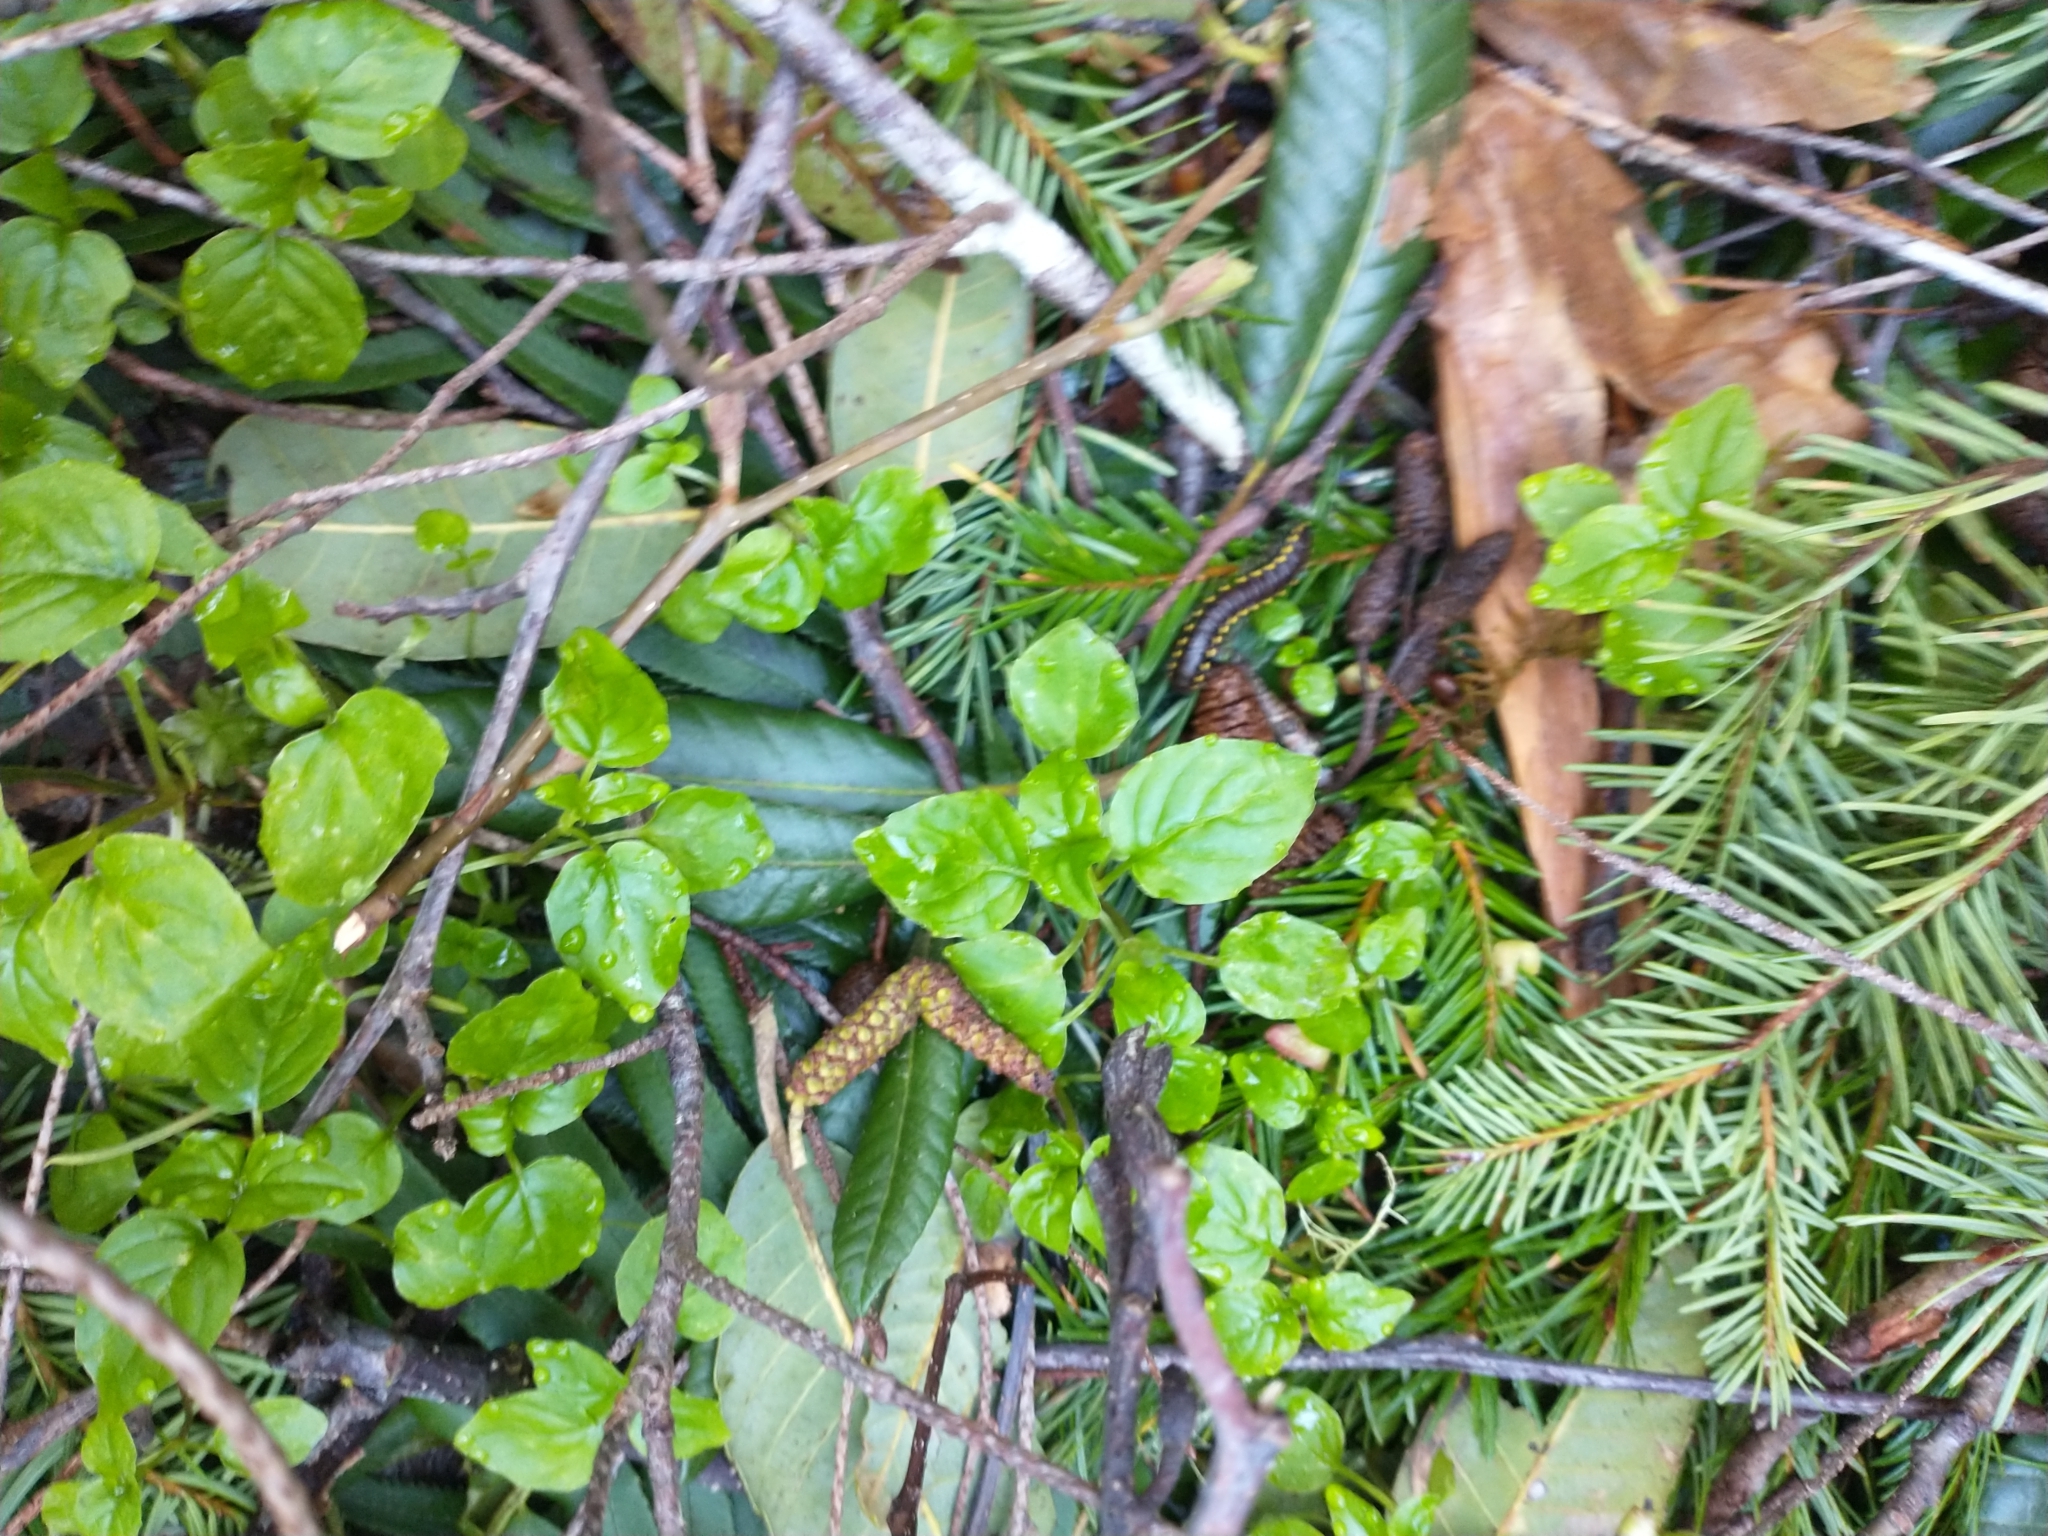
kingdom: Plantae
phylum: Tracheophyta
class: Magnoliopsida
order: Myrtales
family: Onagraceae
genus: Circaea
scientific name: Circaea alpina
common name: Alpine enchanter's-nightshade
